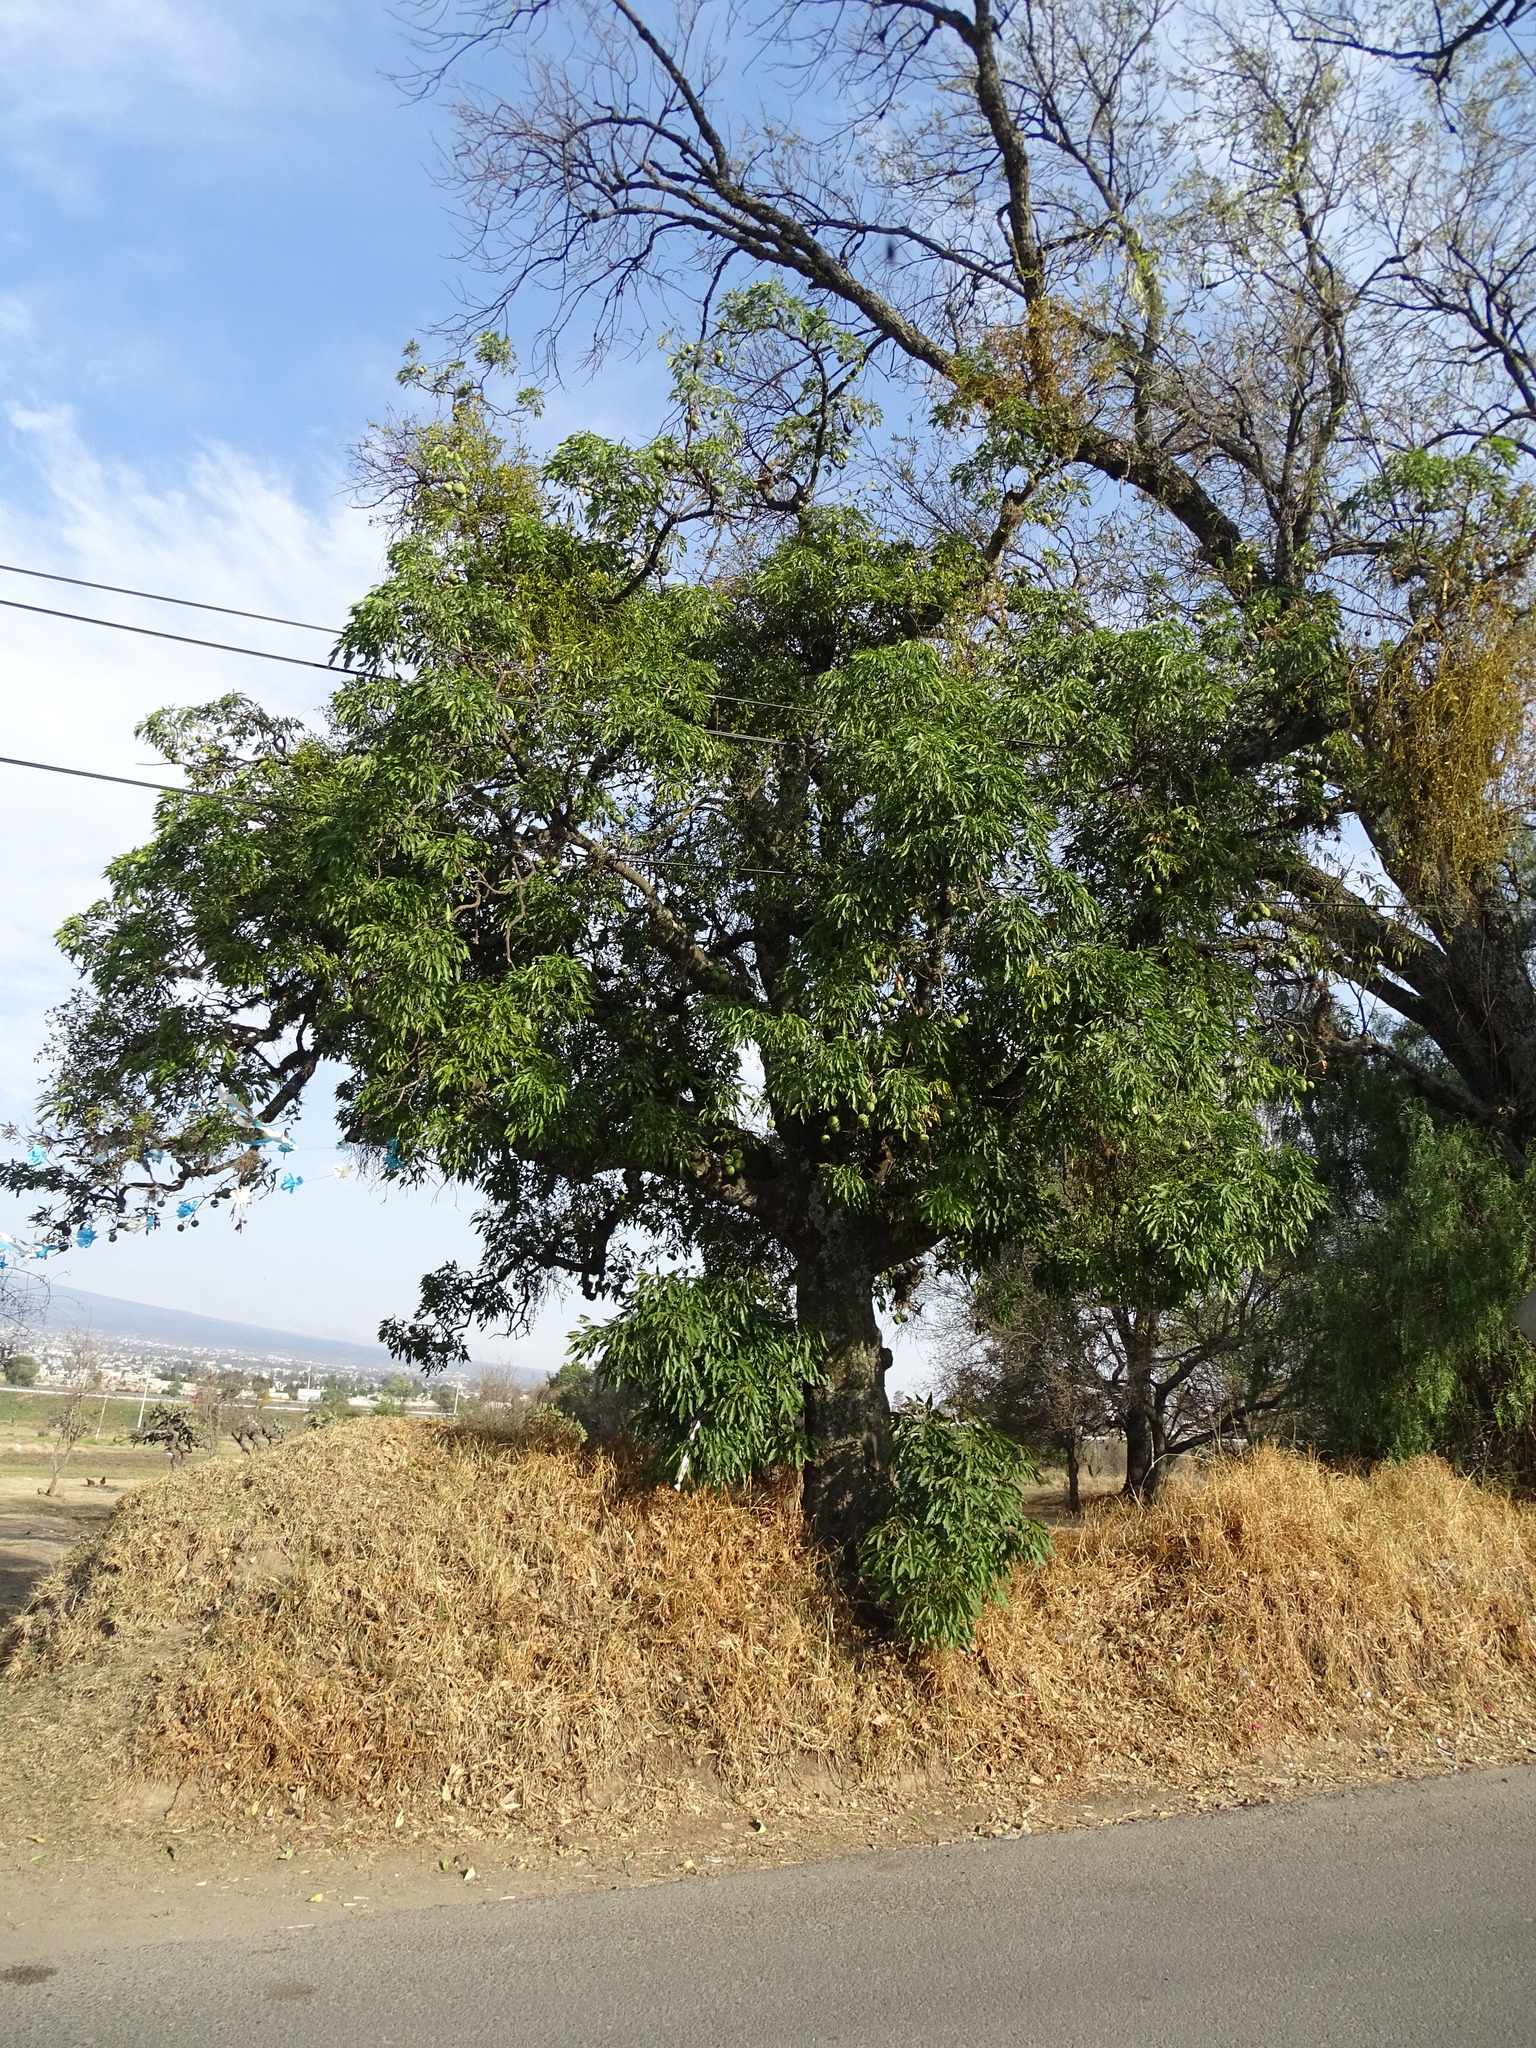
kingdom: Plantae
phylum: Tracheophyta
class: Magnoliopsida
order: Sapindales
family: Rutaceae
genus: Casimiroa
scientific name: Casimiroa edulis
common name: Mexican-apple
